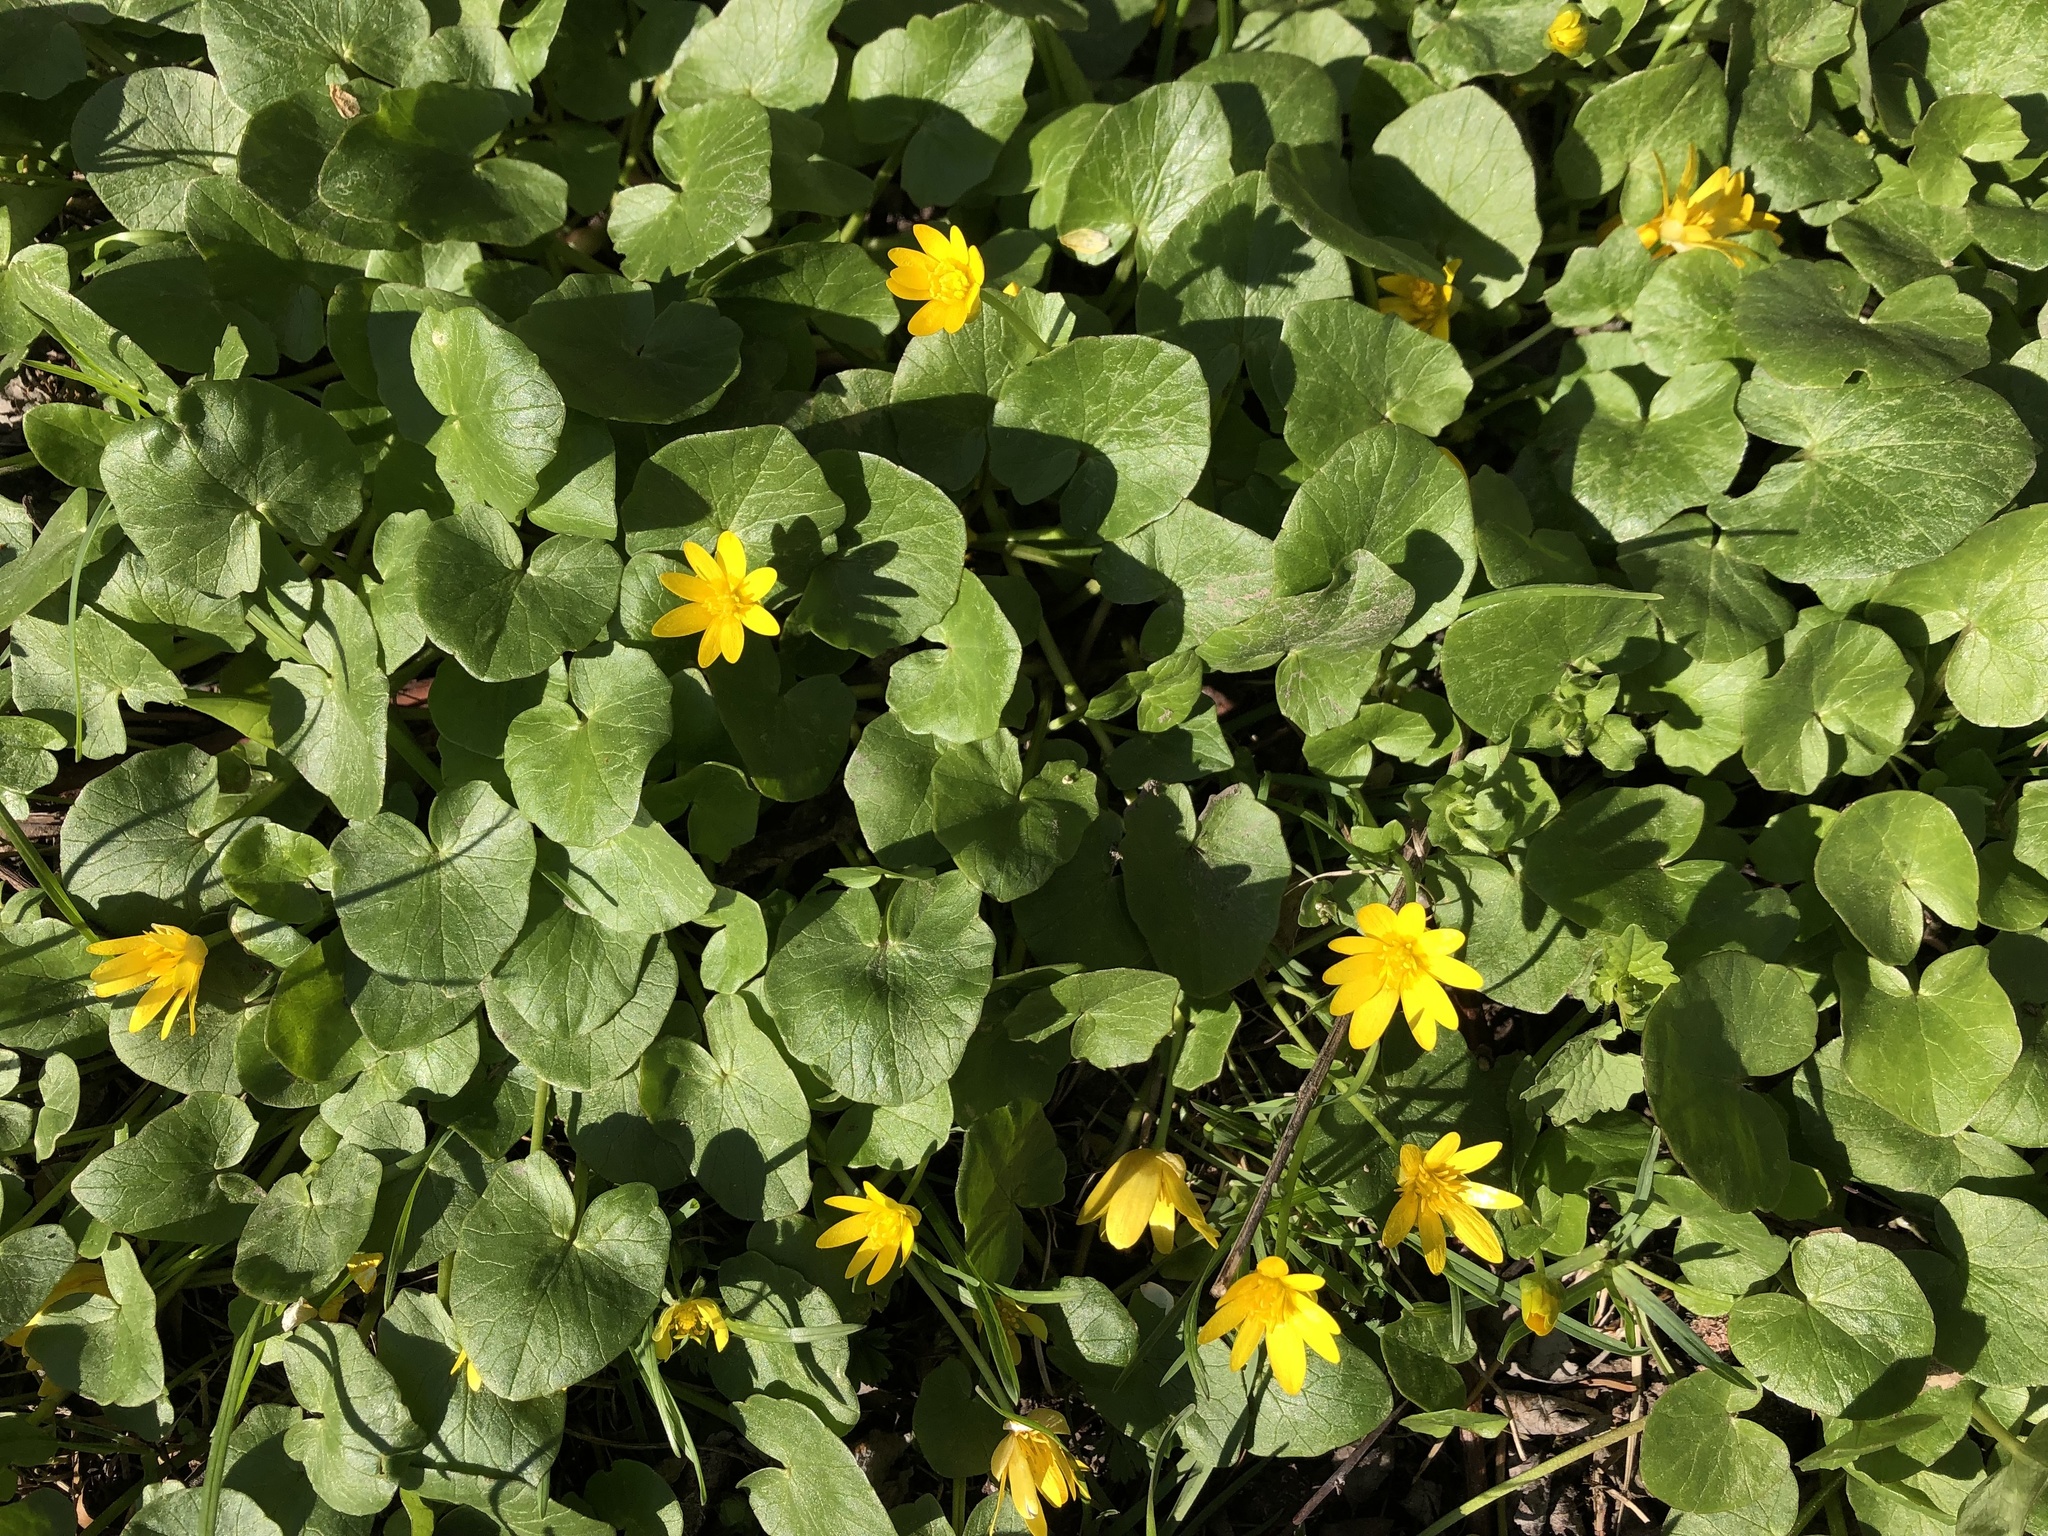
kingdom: Plantae
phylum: Tracheophyta
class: Magnoliopsida
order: Ranunculales
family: Ranunculaceae
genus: Ficaria
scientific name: Ficaria verna
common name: Lesser celandine
